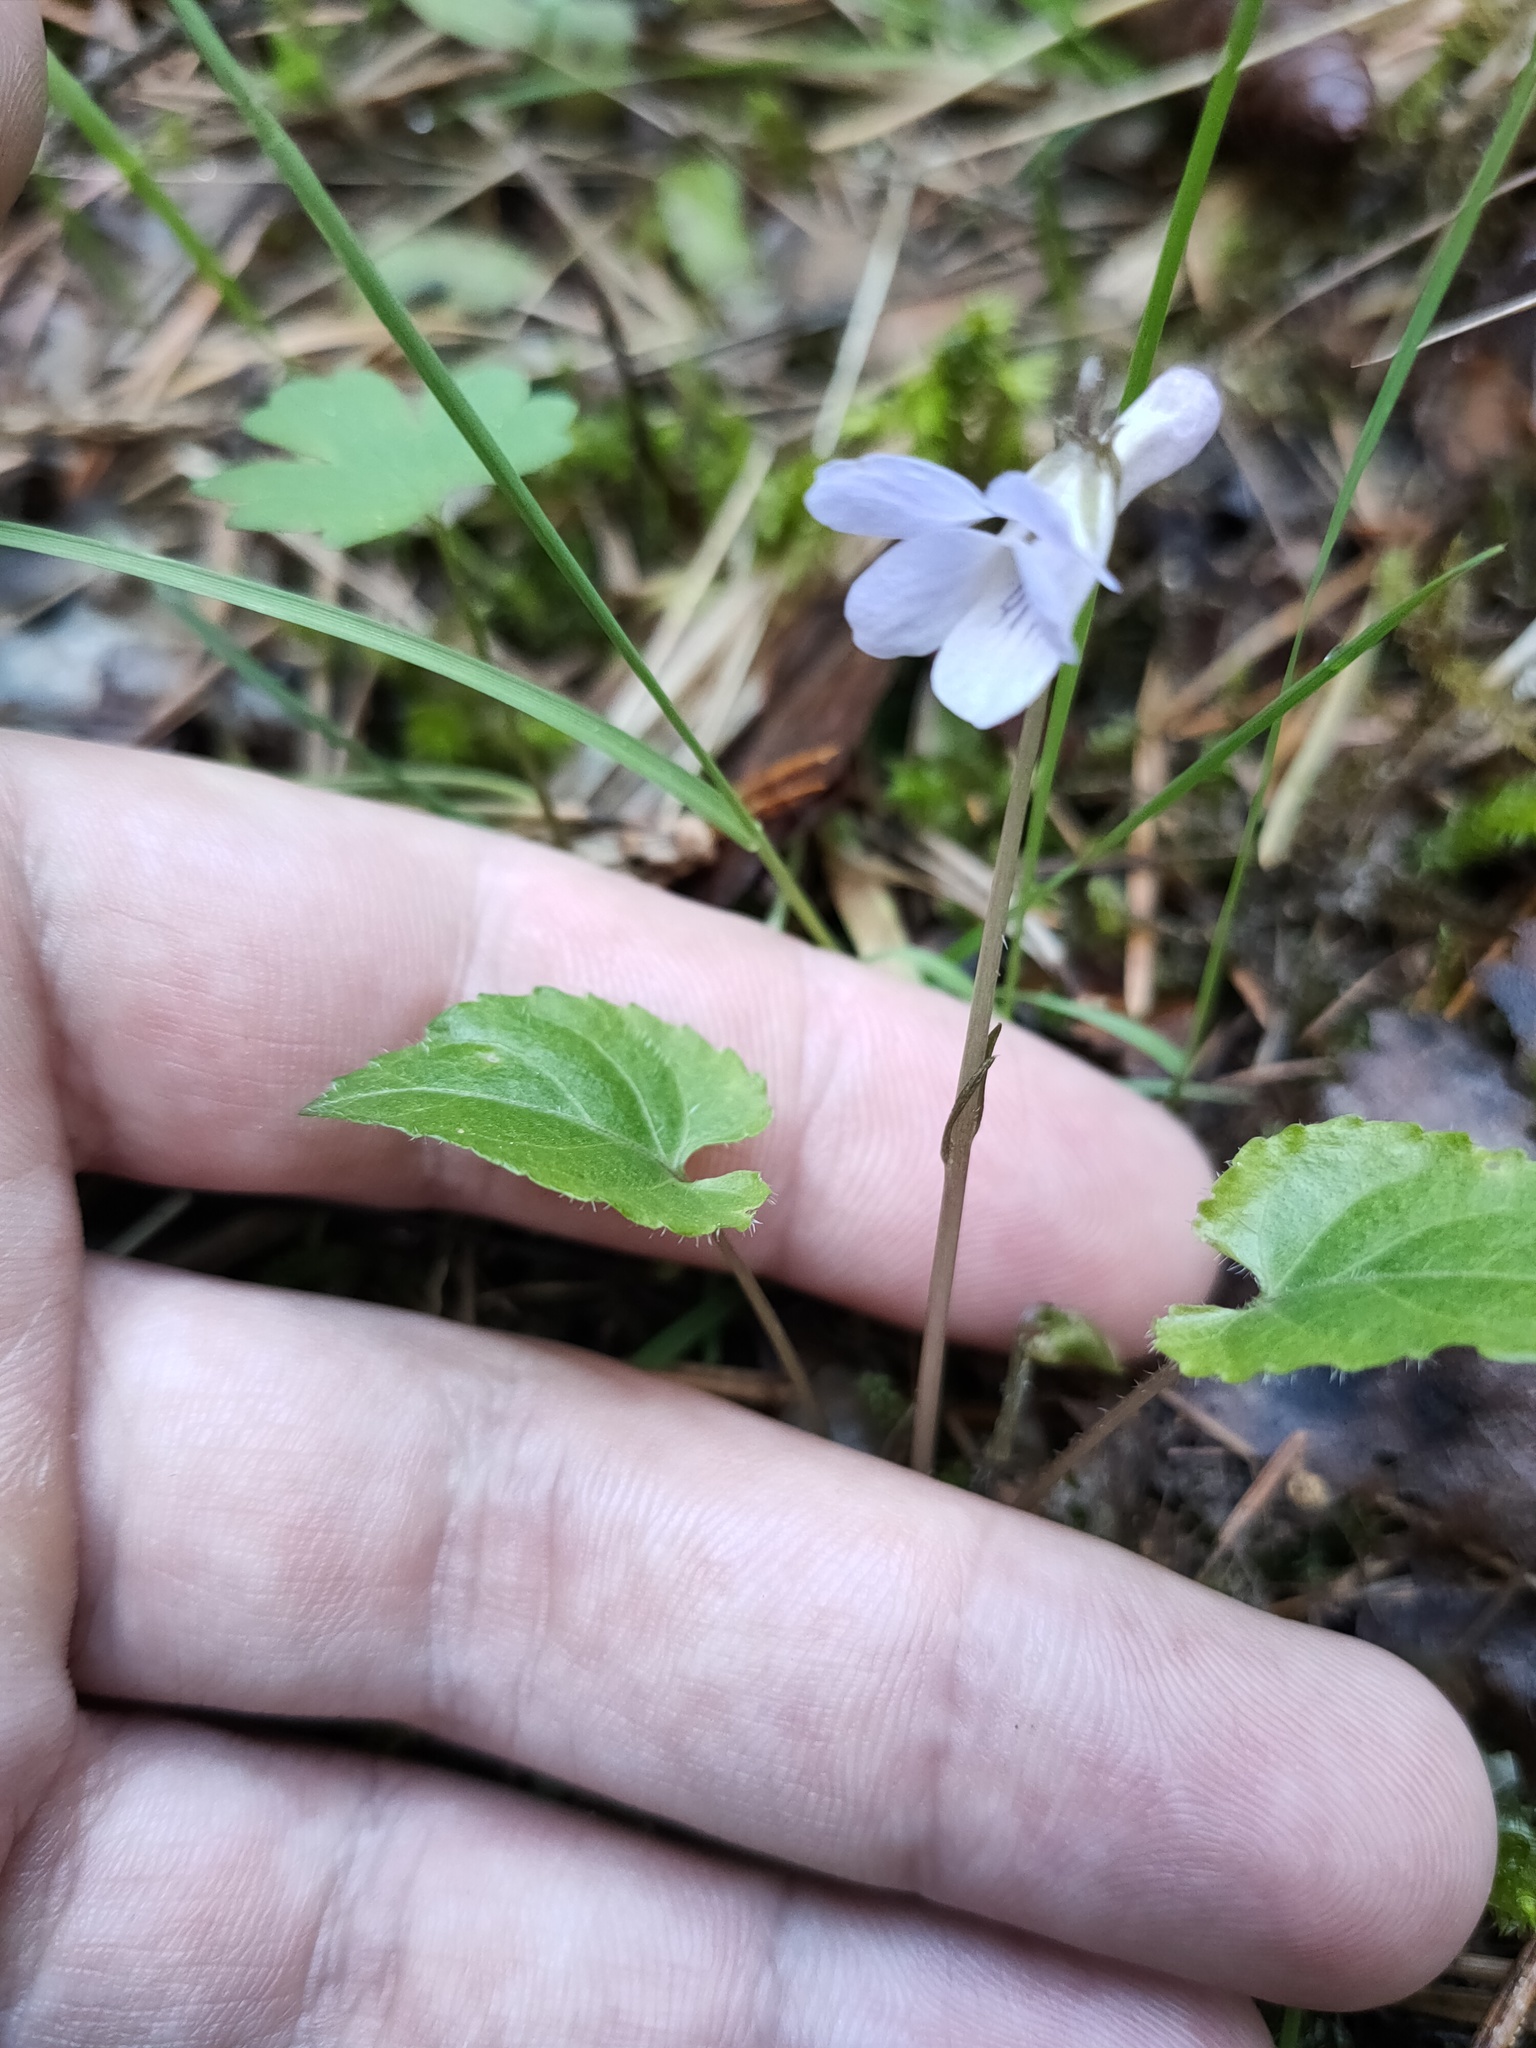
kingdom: Plantae
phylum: Tracheophyta
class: Magnoliopsida
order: Malpighiales
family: Violaceae
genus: Viola
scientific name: Viola selkirkii
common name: Selkirk's violet
